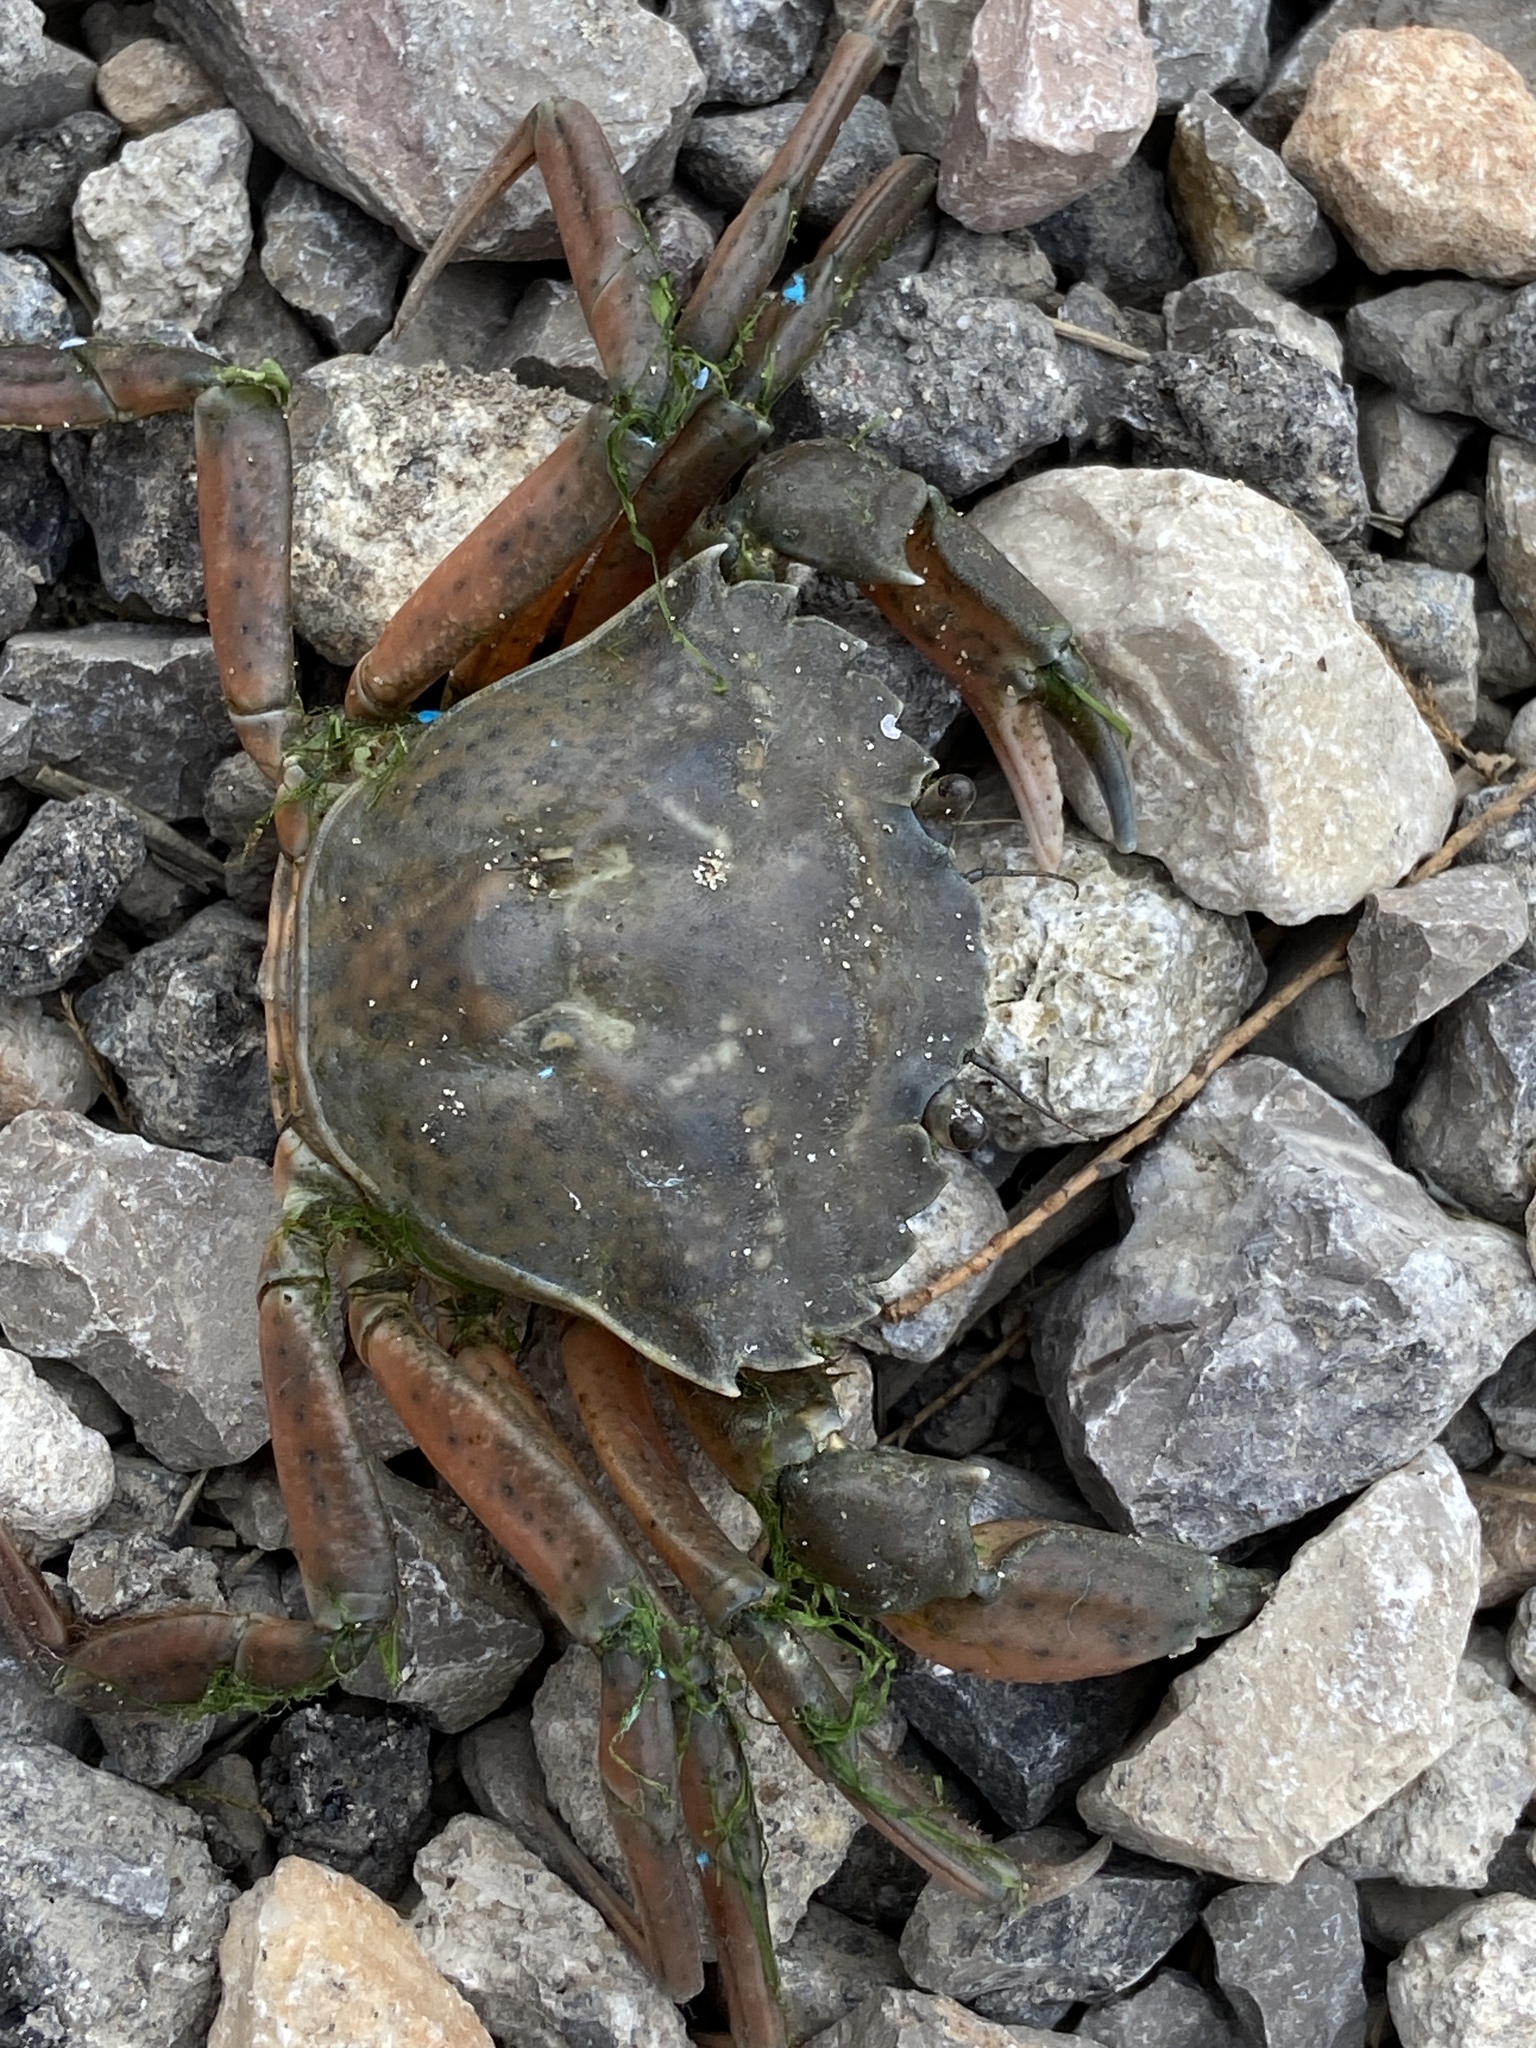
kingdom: Animalia
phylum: Arthropoda
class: Malacostraca
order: Decapoda
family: Carcinidae
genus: Carcinus
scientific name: Carcinus aestuarii
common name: Mediterranean green crab
